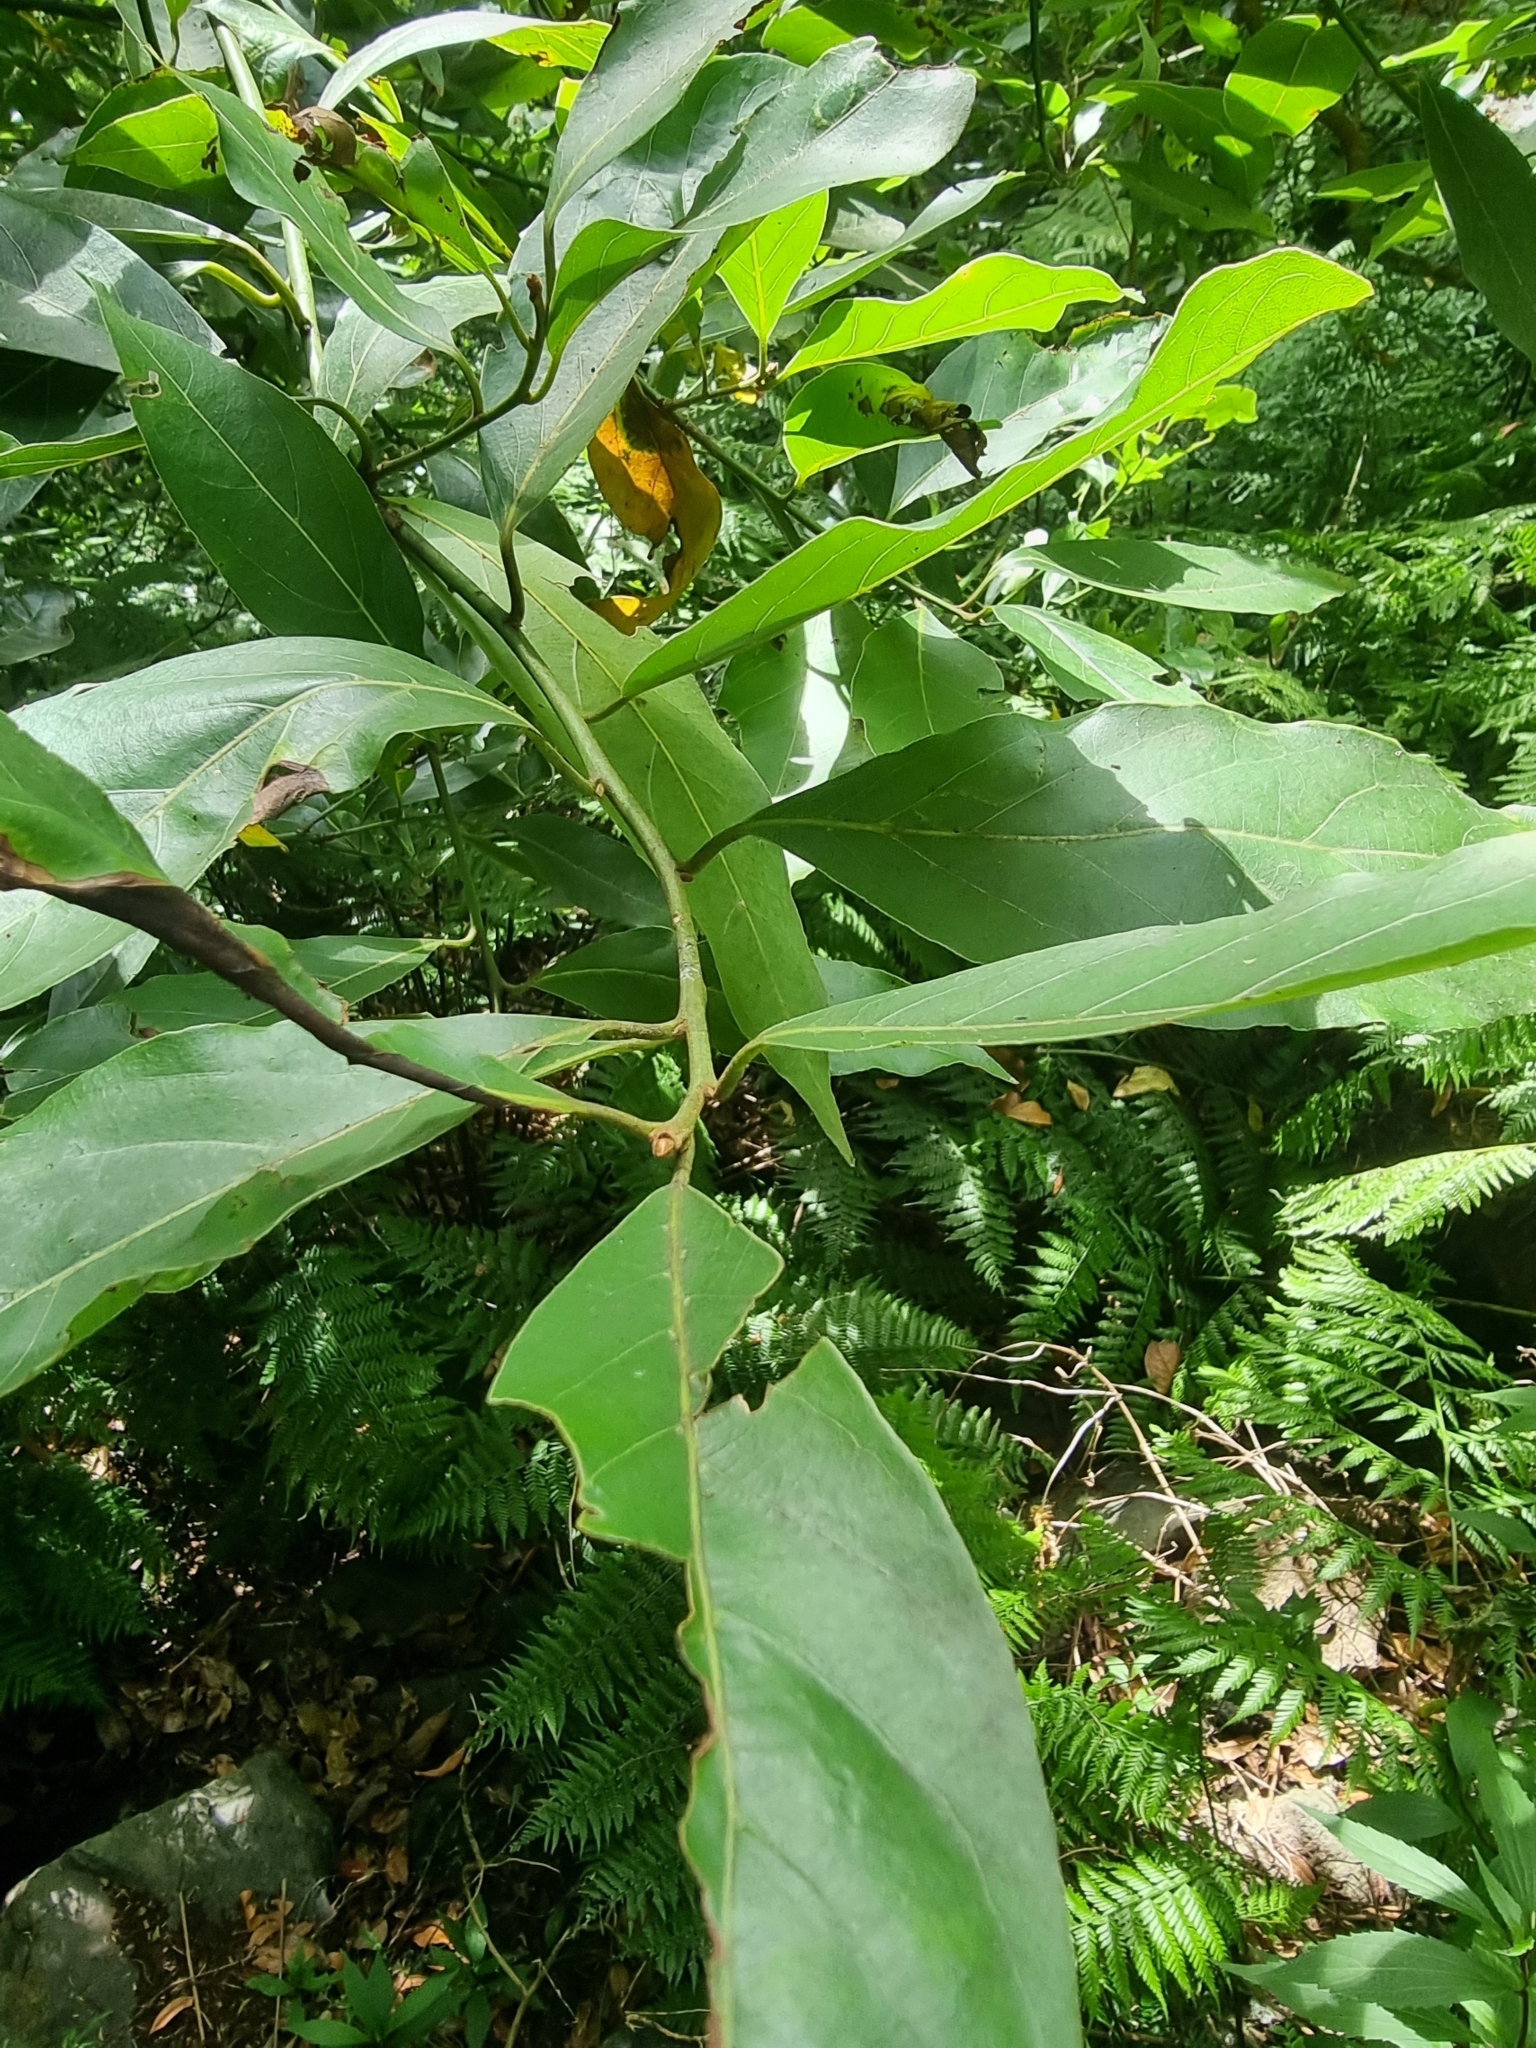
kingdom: Plantae
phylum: Tracheophyta
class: Magnoliopsida
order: Laurales
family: Lauraceae
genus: Laurus
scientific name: Laurus novocanariensis
